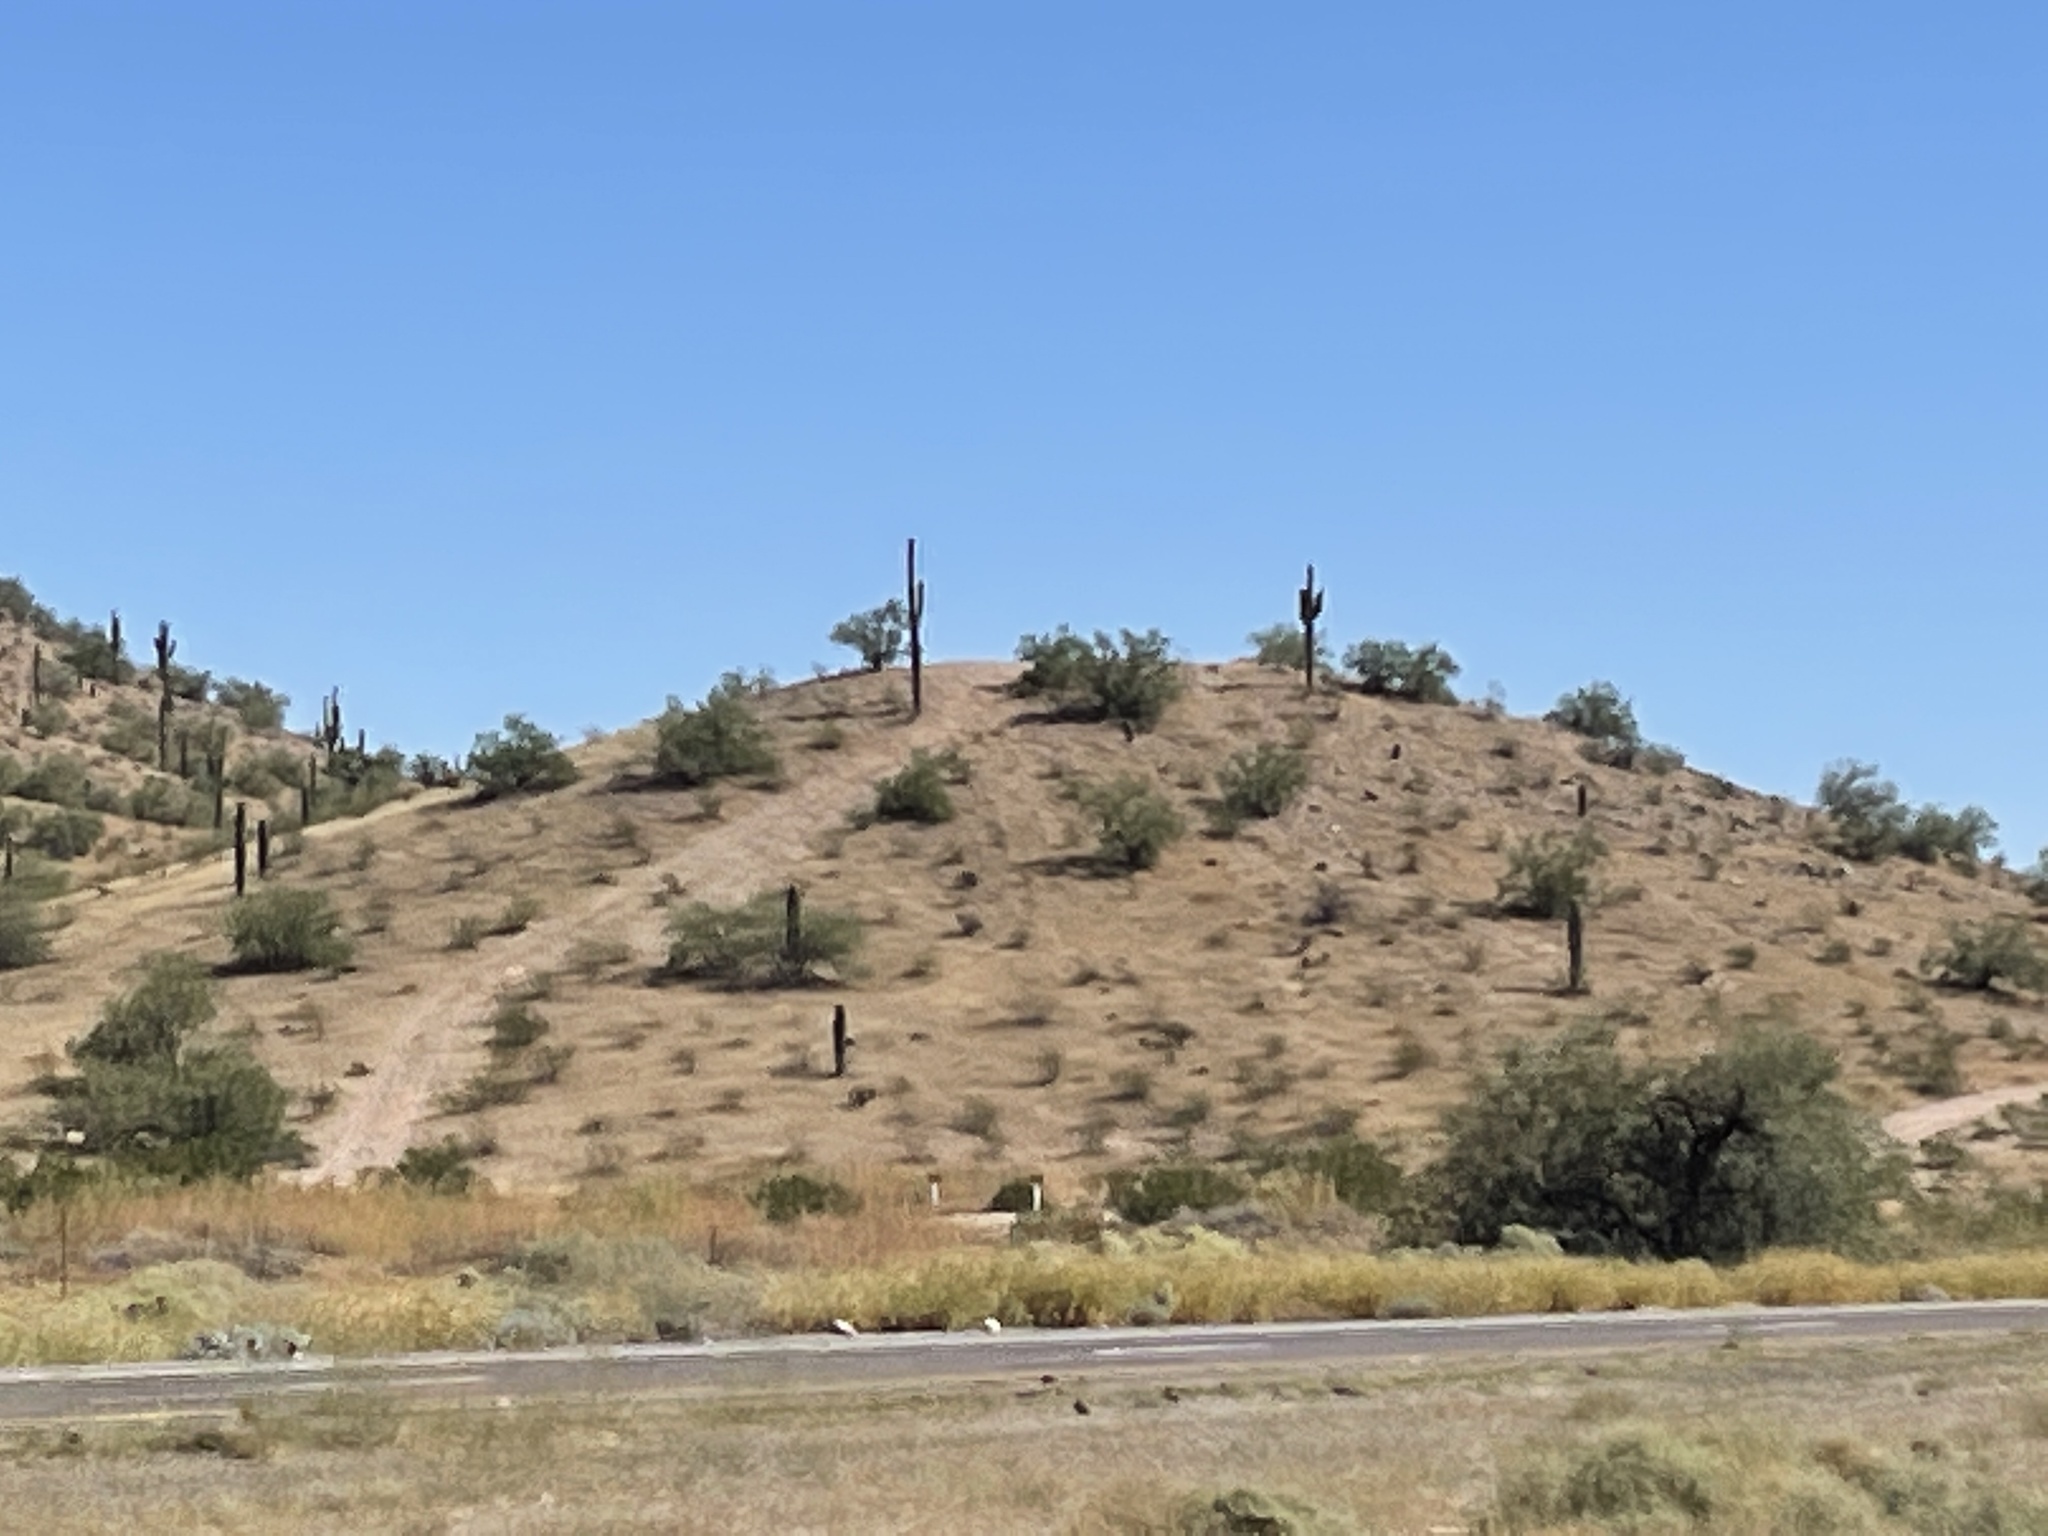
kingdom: Plantae
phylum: Tracheophyta
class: Magnoliopsida
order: Caryophyllales
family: Cactaceae
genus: Carnegiea
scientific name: Carnegiea gigantea
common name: Saguaro
